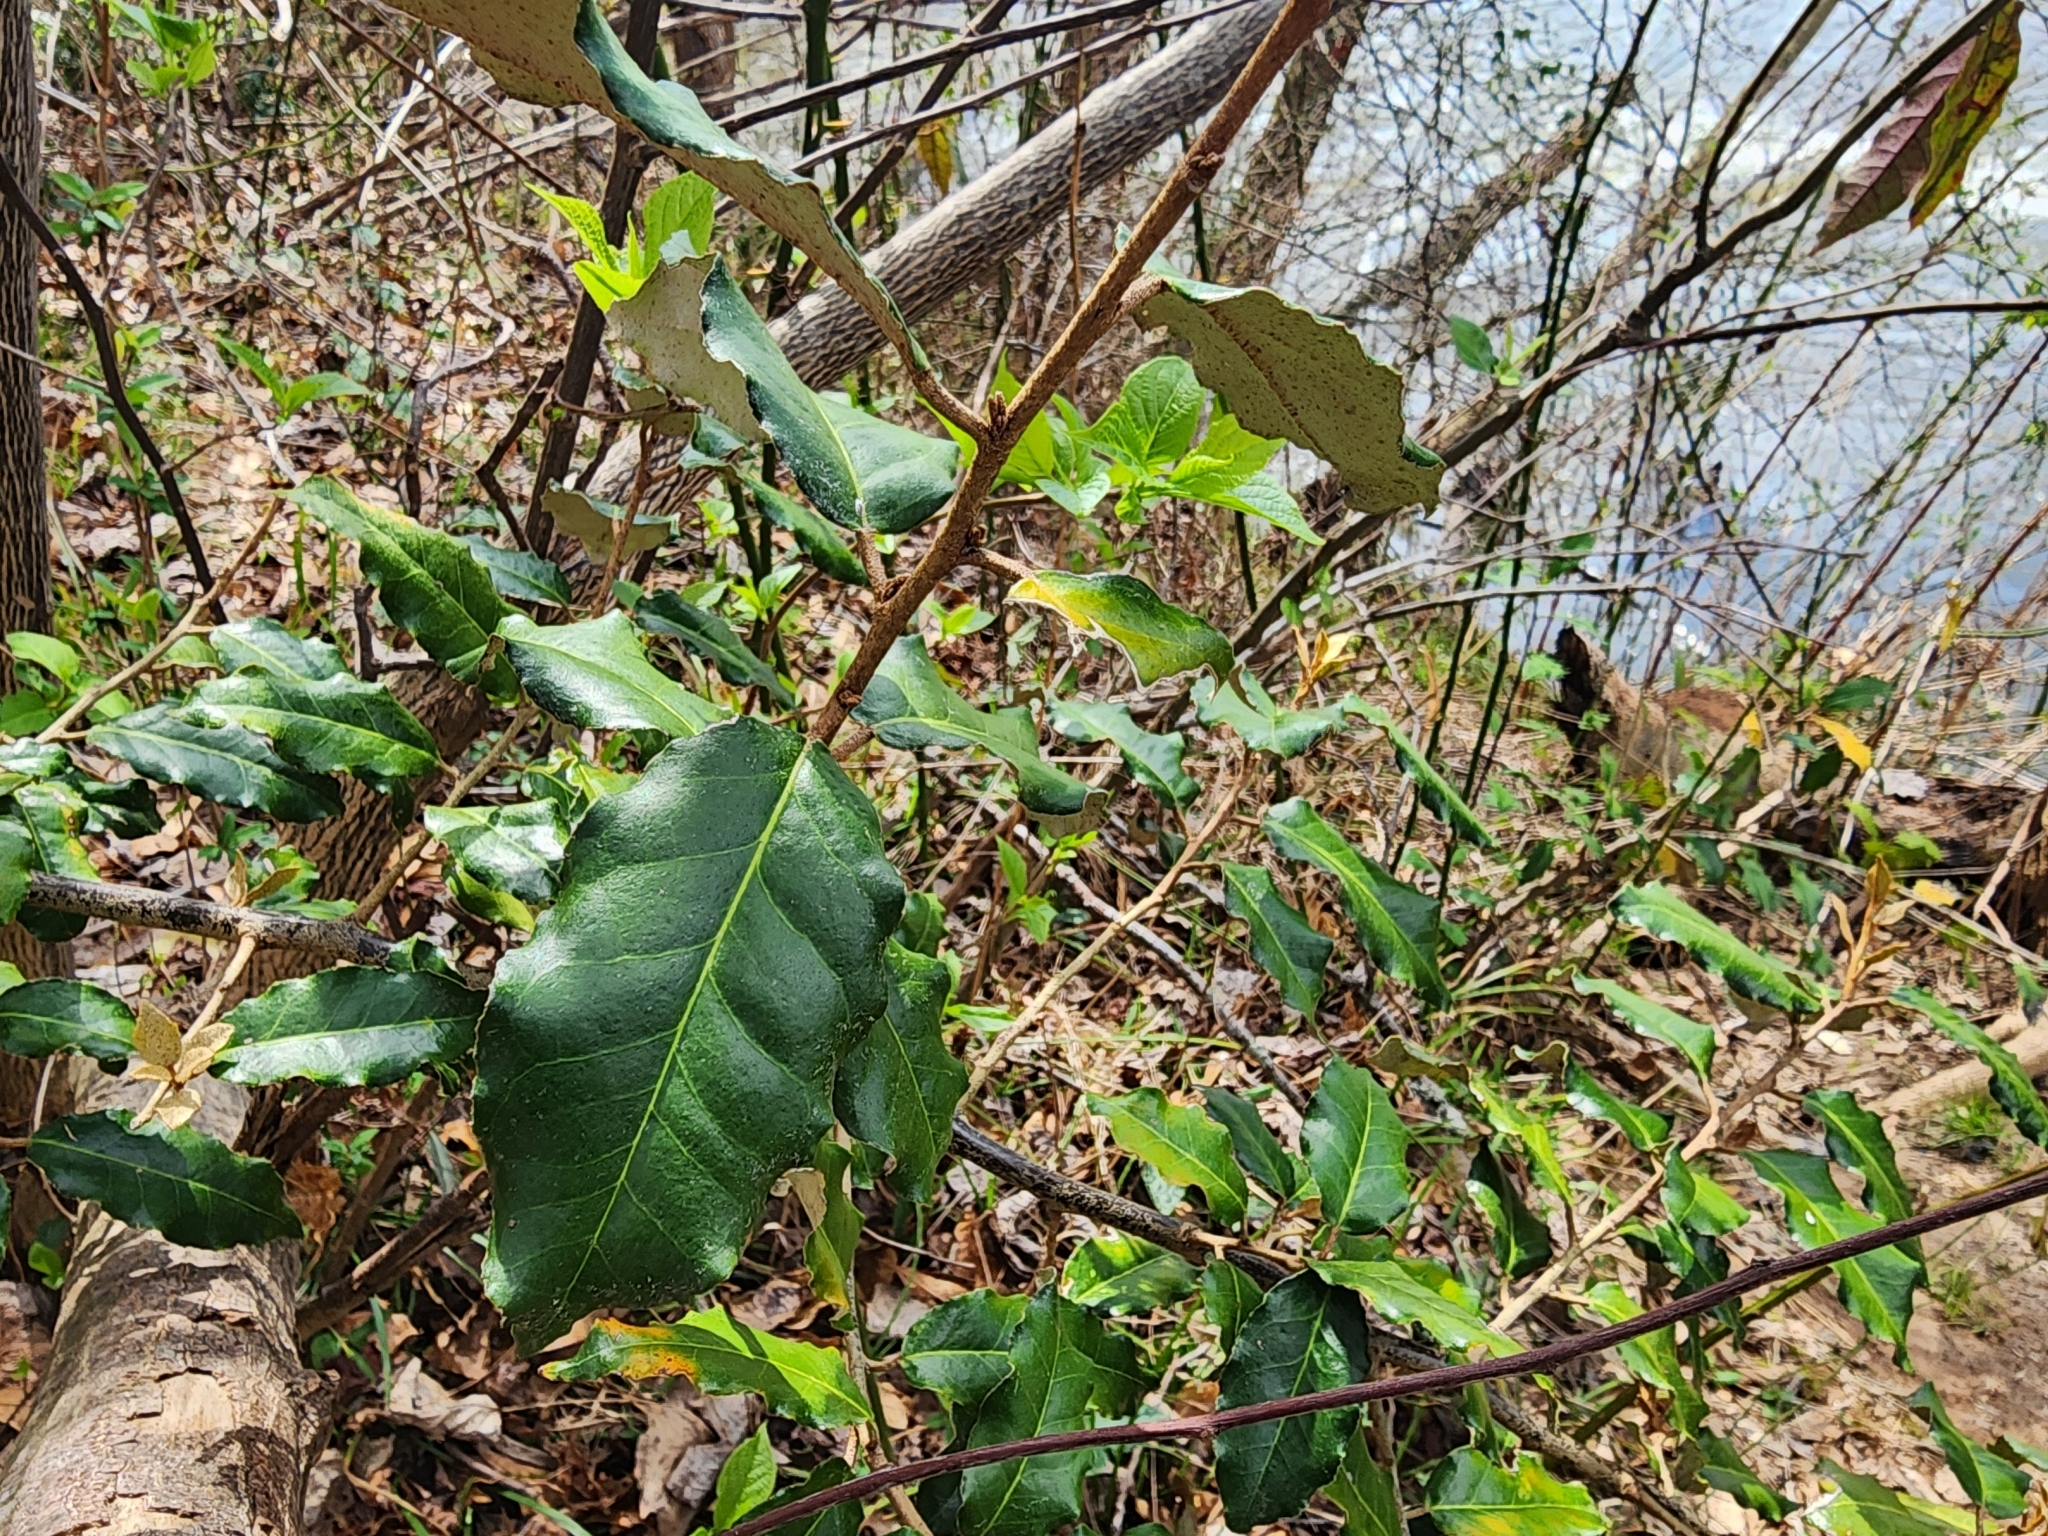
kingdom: Plantae
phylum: Tracheophyta
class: Magnoliopsida
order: Rosales
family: Elaeagnaceae
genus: Elaeagnus
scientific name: Elaeagnus pungens
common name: Spiny oleaster
